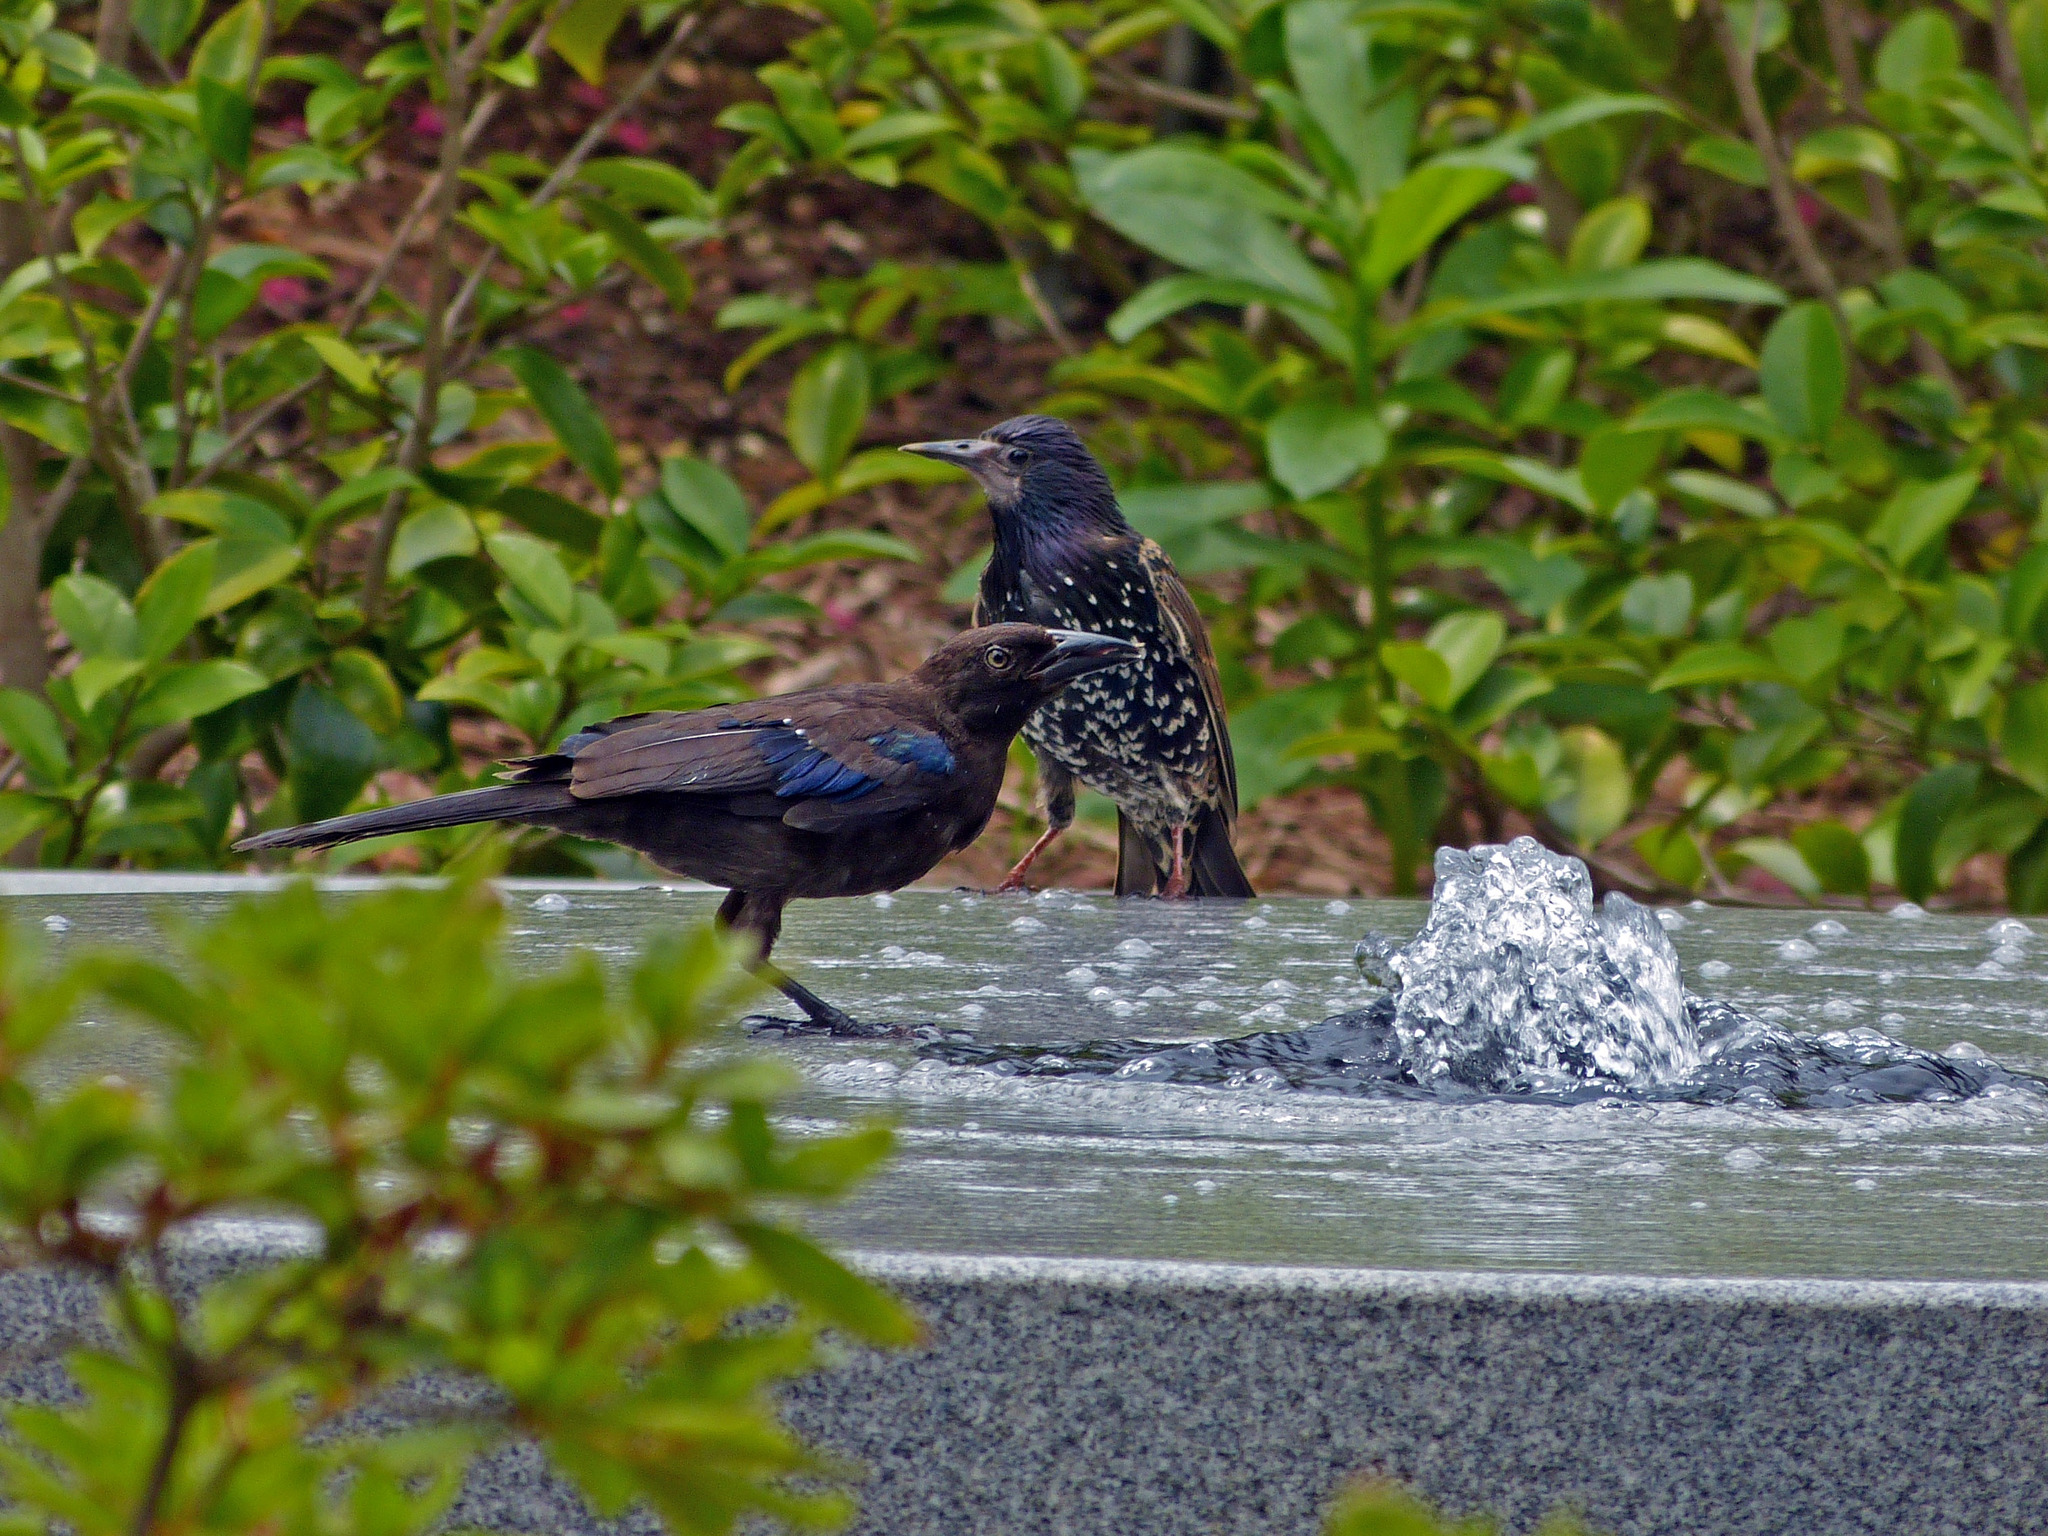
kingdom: Animalia
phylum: Chordata
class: Aves
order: Passeriformes
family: Icteridae
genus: Quiscalus
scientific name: Quiscalus quiscula
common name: Common grackle
